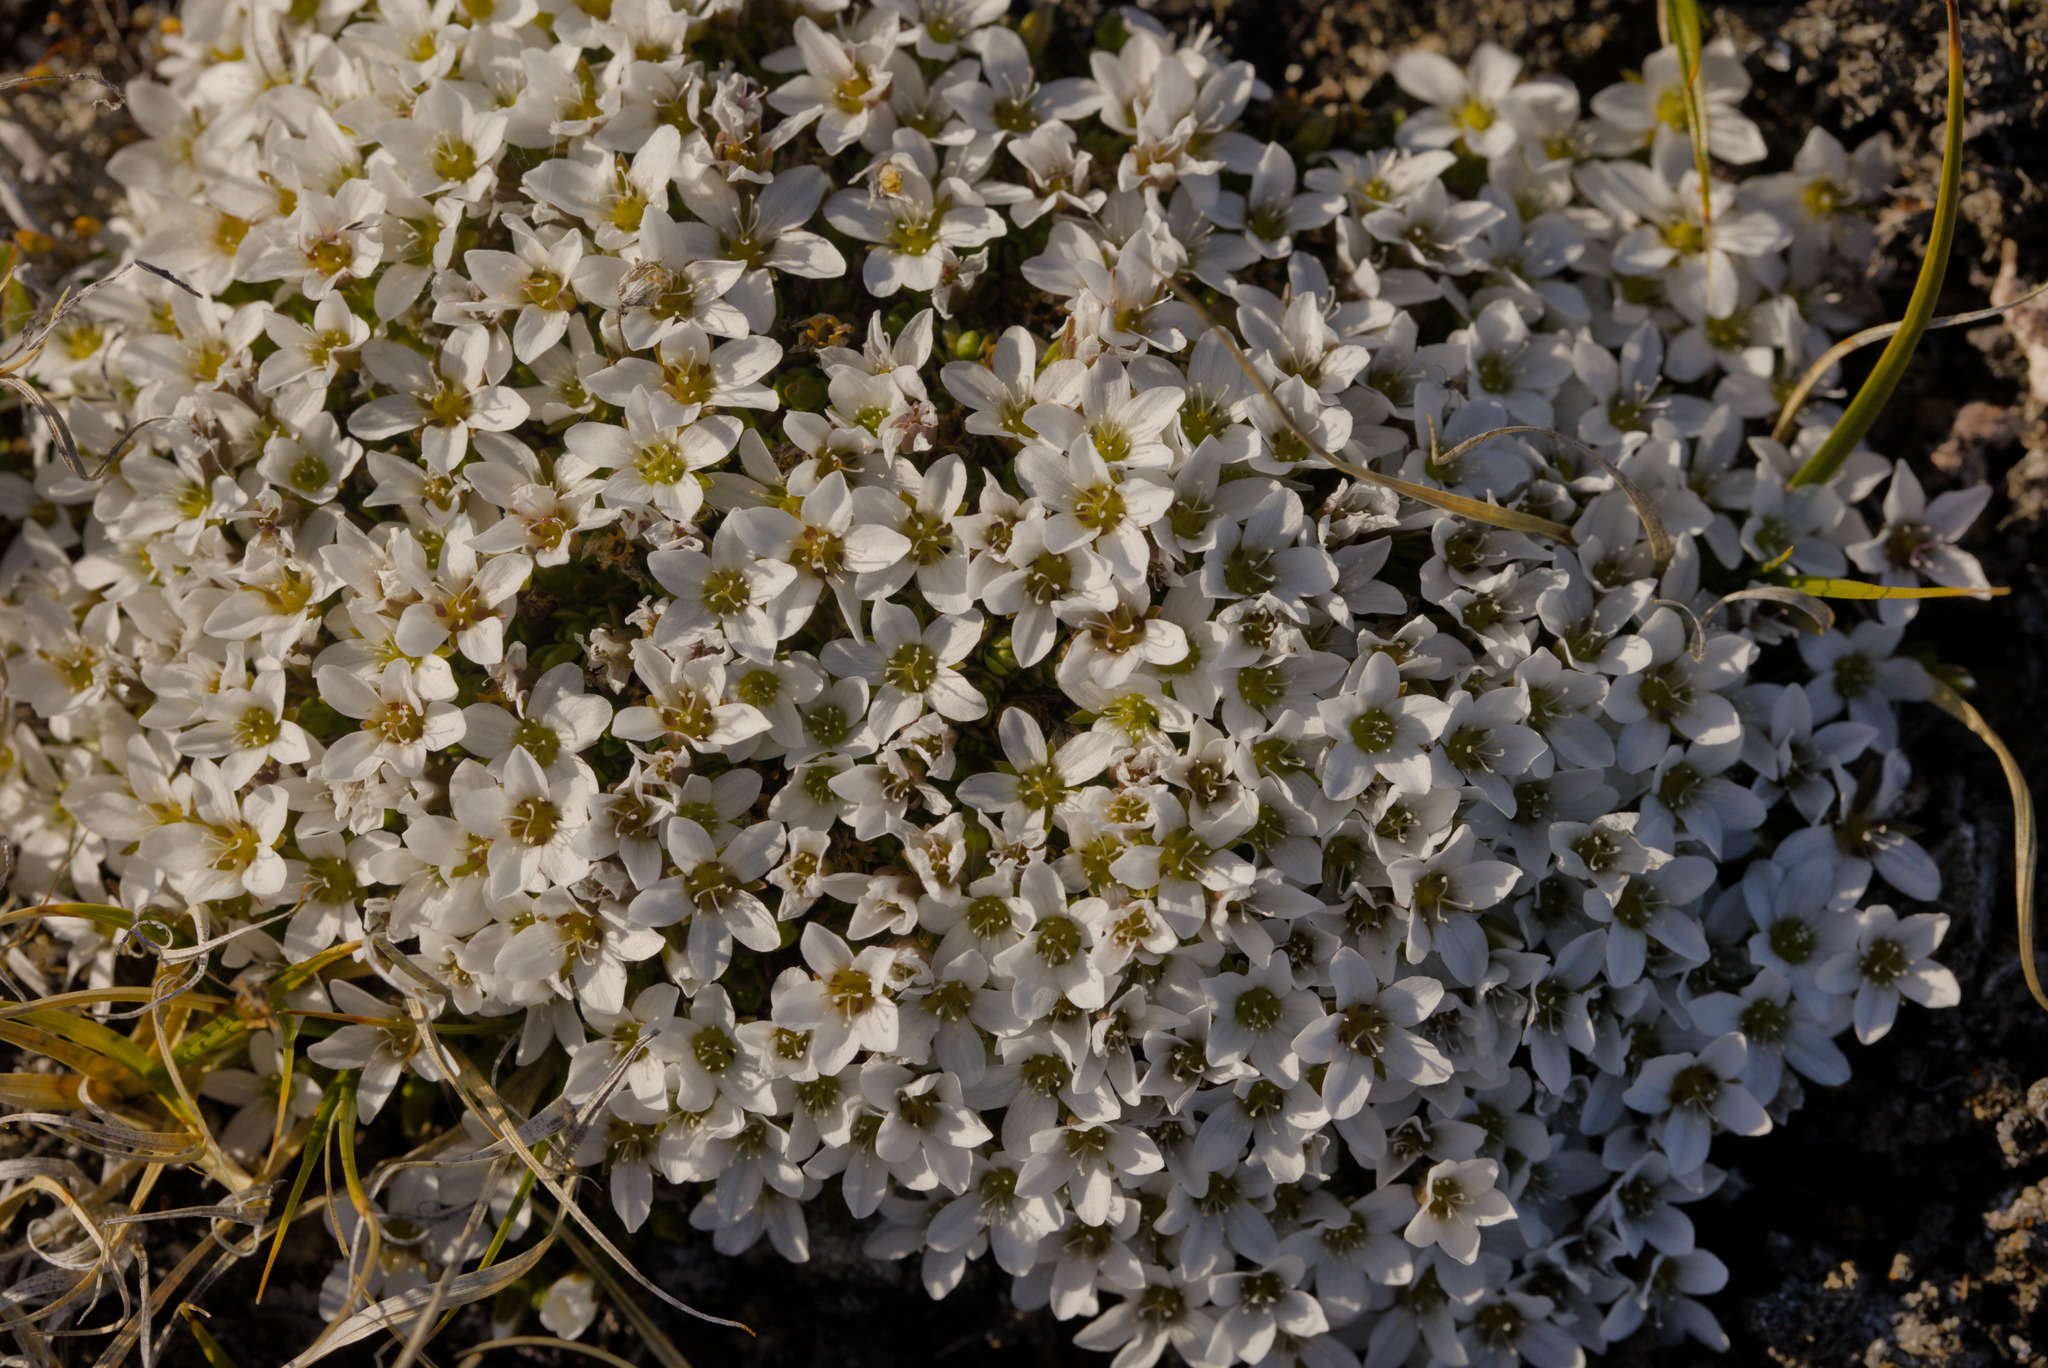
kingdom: Plantae
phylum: Tracheophyta
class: Magnoliopsida
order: Caryophyllales
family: Caryophyllaceae
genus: Arenaria
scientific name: Arenaria pseudofrigida
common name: Tundra sandwort
